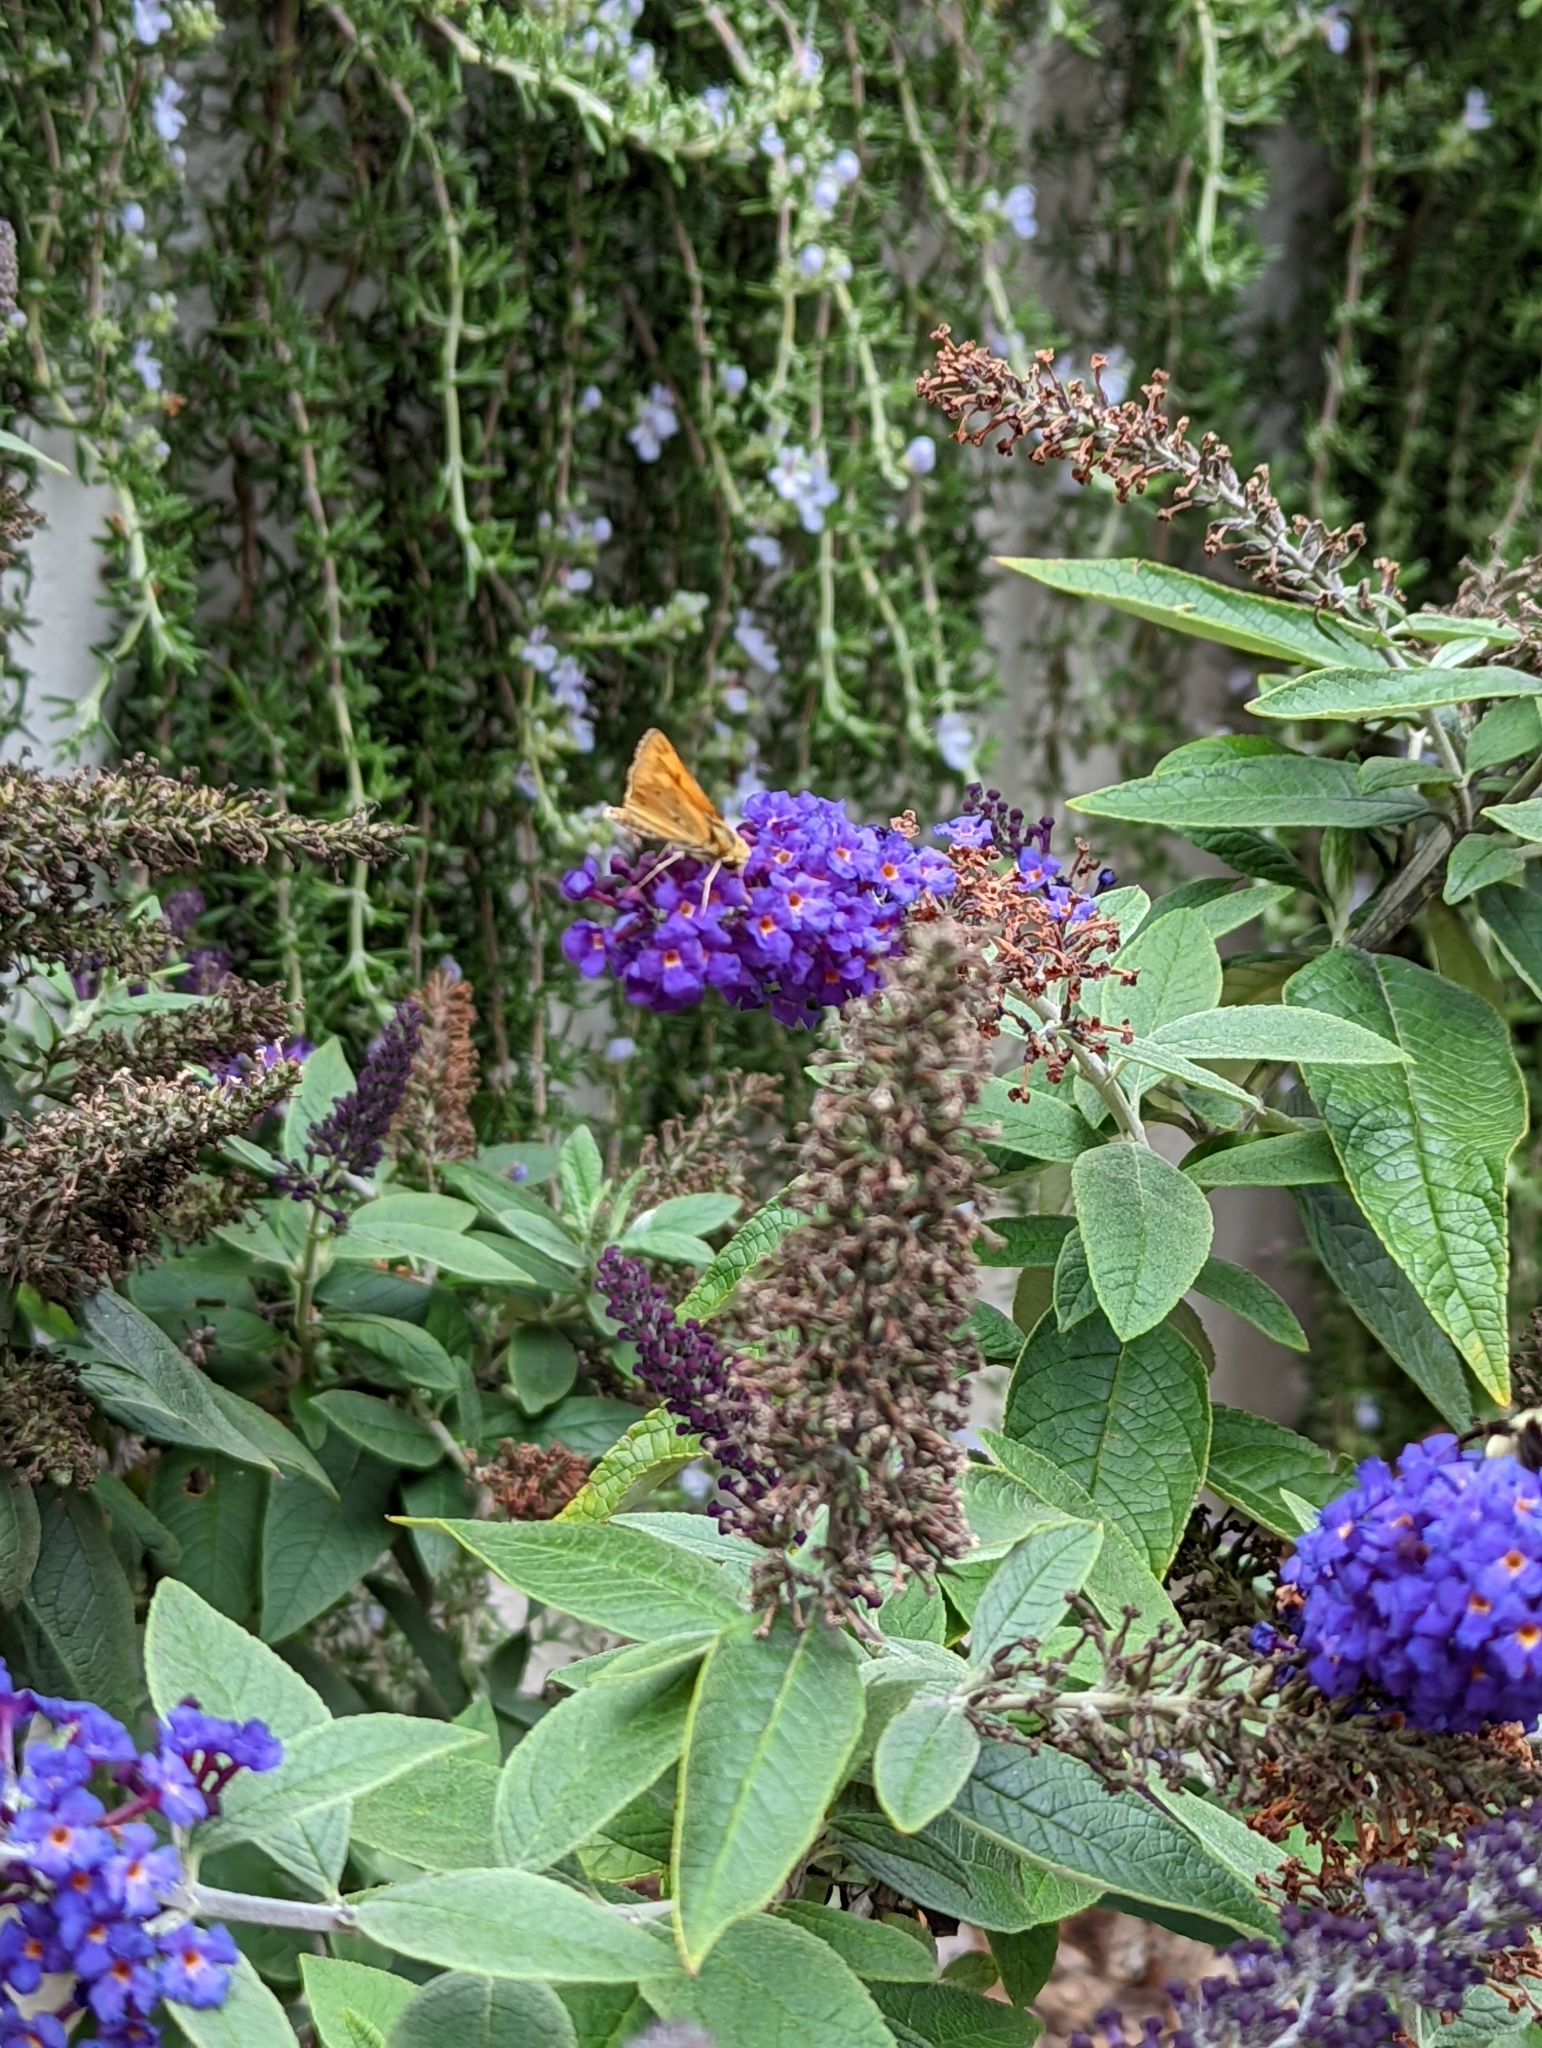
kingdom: Animalia
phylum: Arthropoda
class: Insecta
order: Lepidoptera
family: Hesperiidae
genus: Hylephila
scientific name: Hylephila phyleus
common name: Fiery skipper
